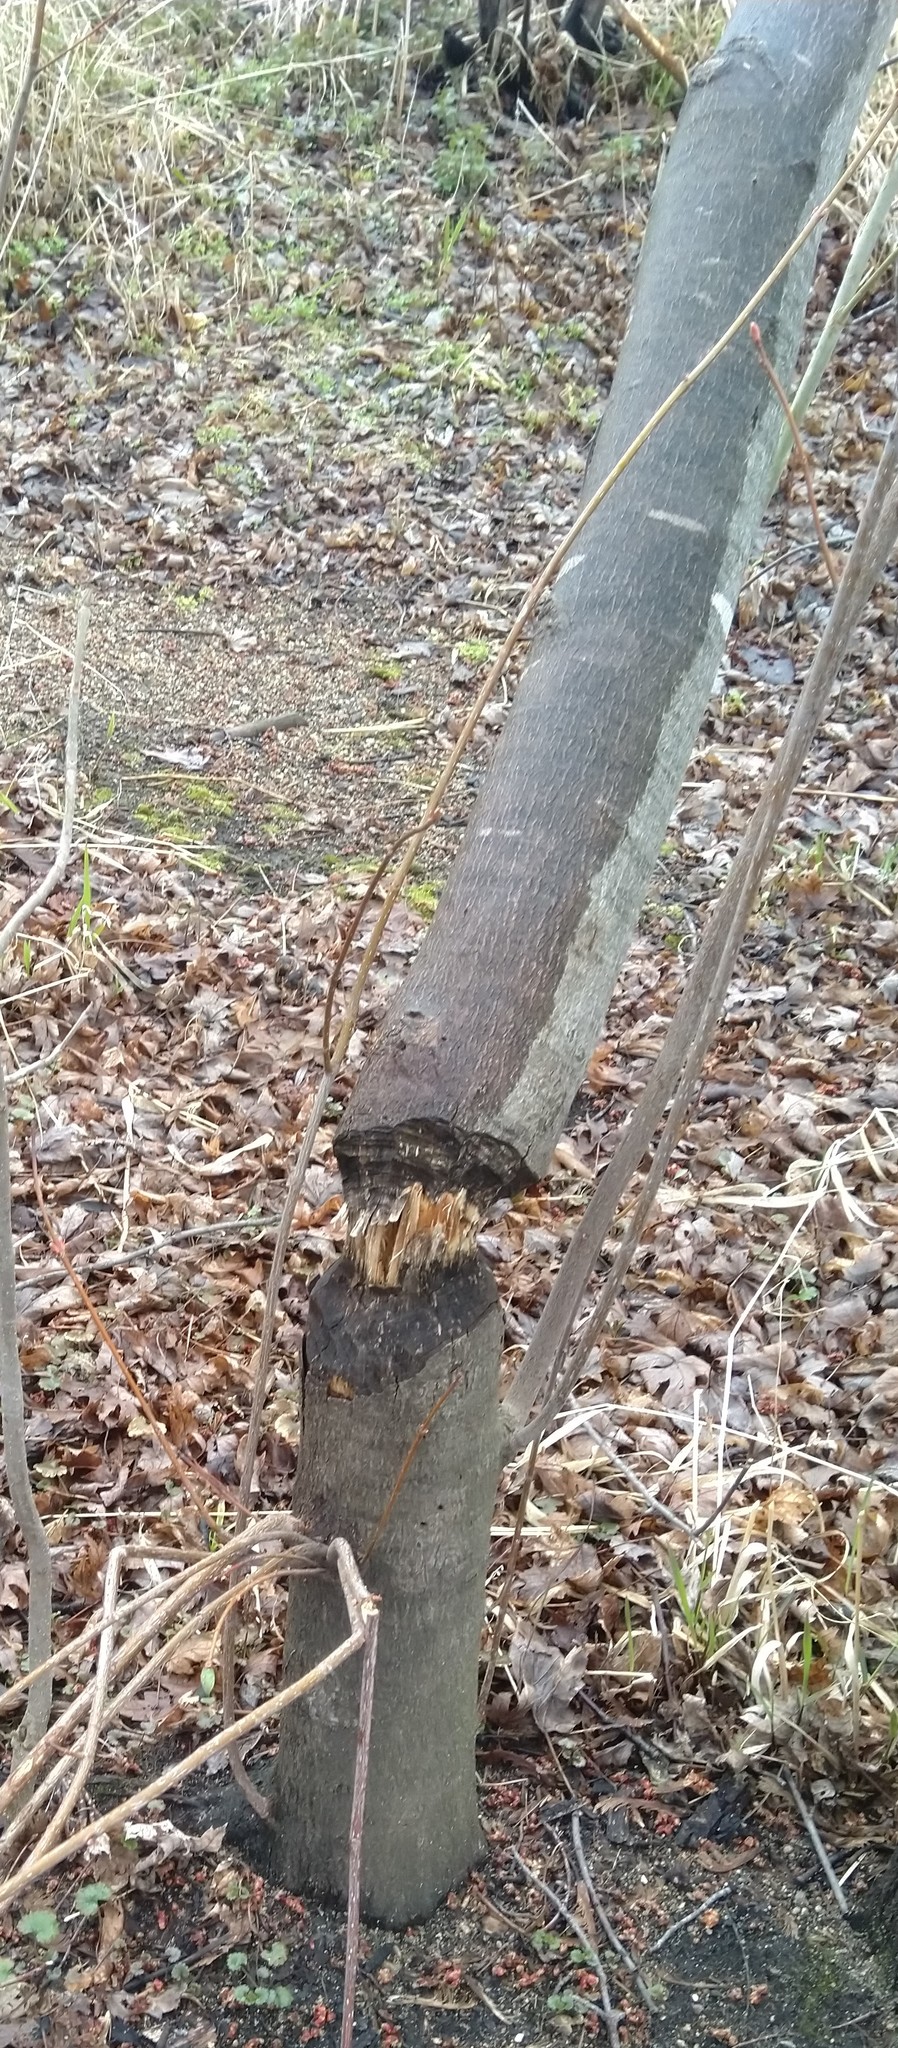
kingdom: Animalia
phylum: Chordata
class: Mammalia
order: Rodentia
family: Castoridae
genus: Castor
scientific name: Castor canadensis
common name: American beaver
